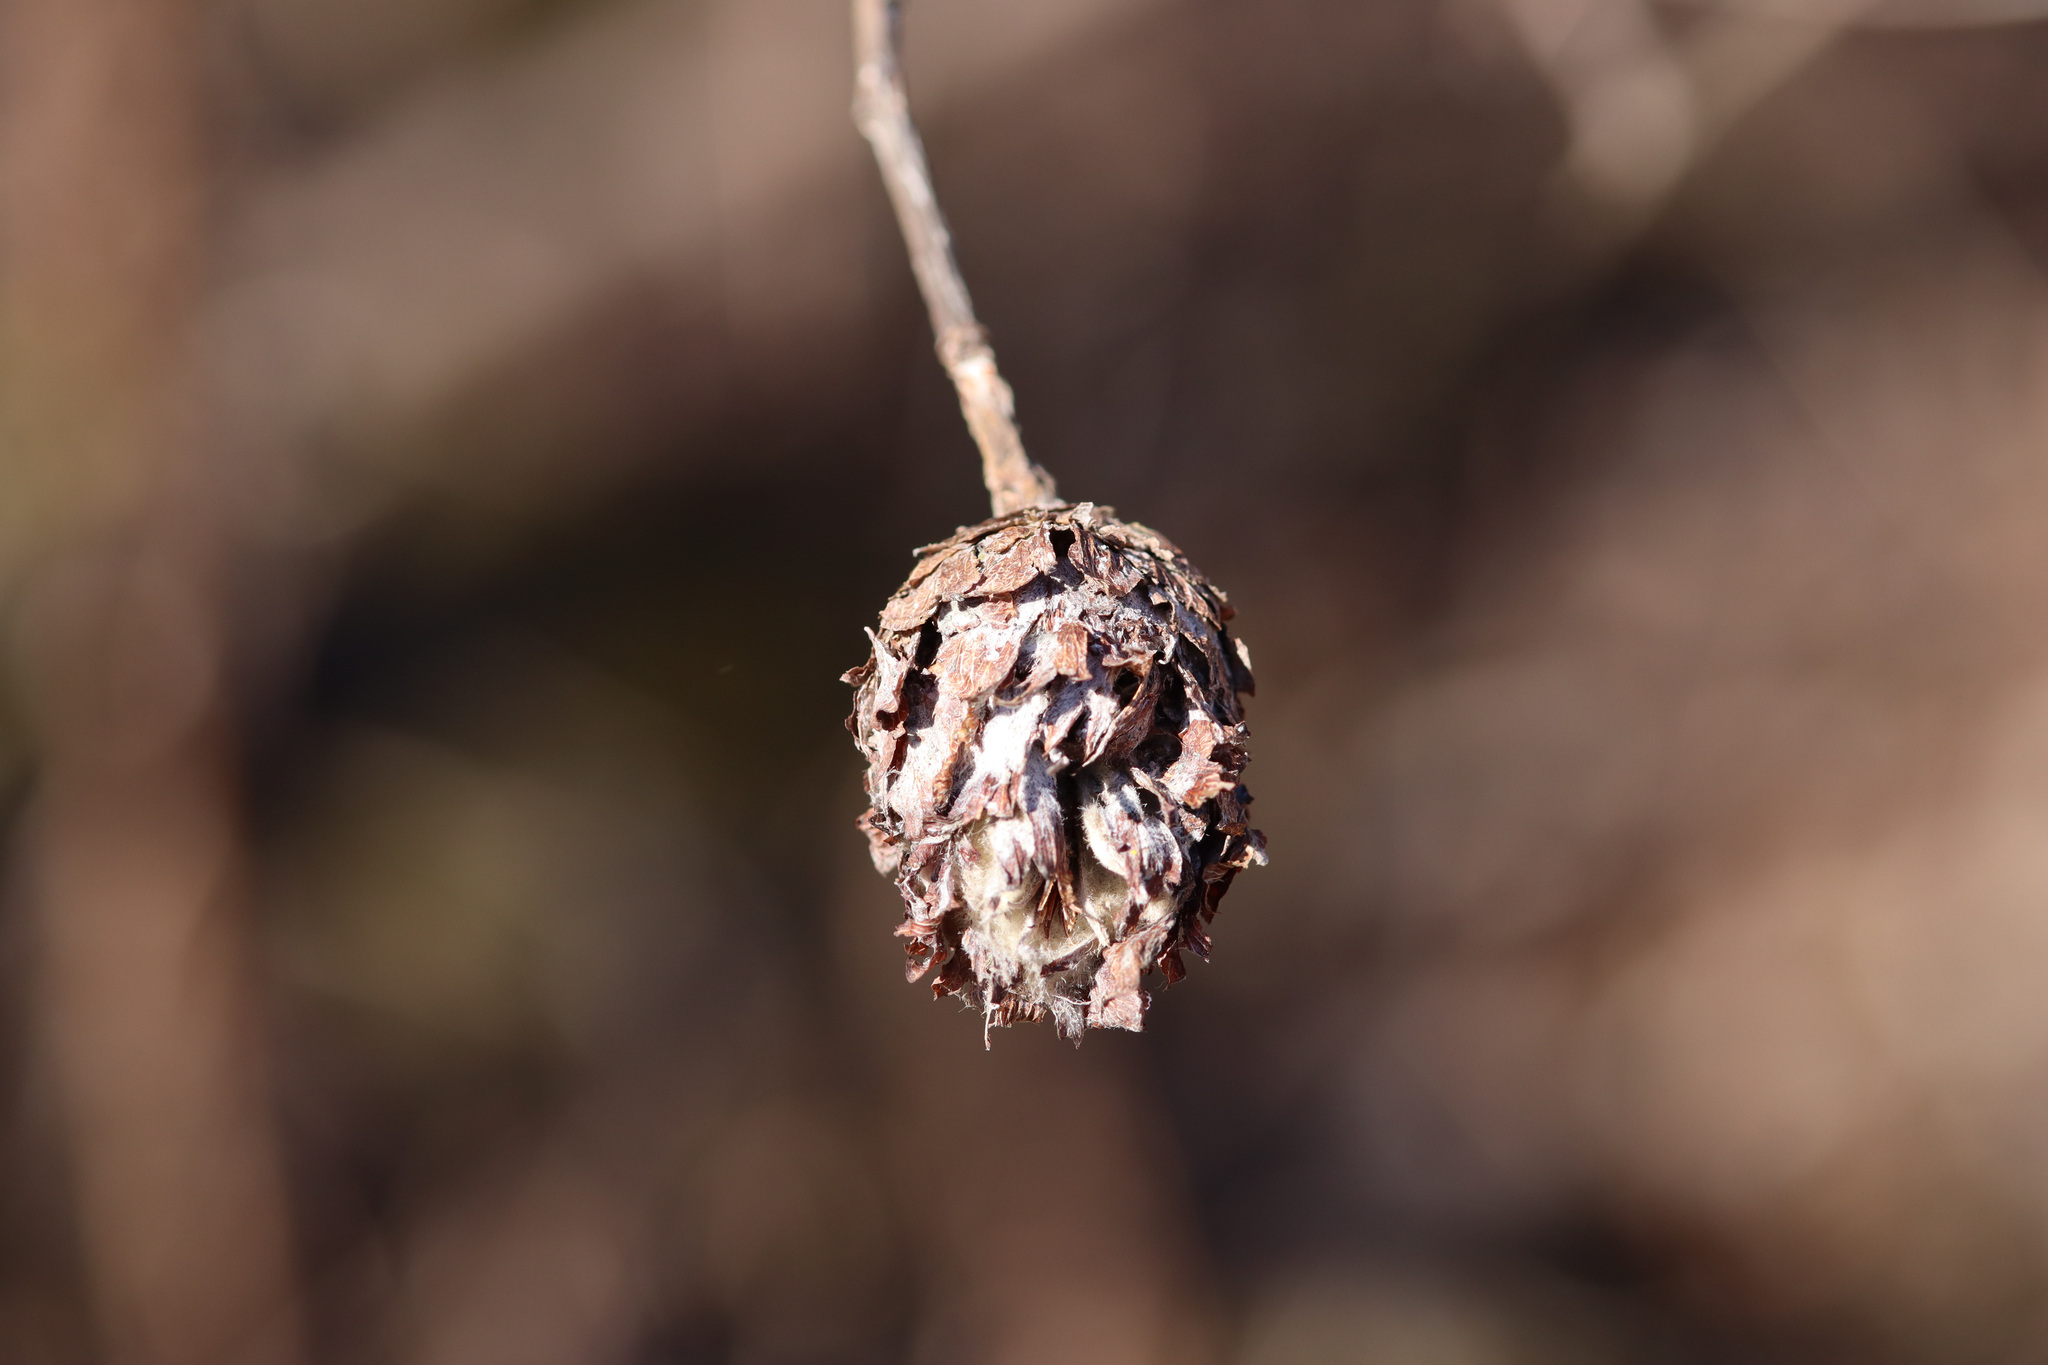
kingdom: Animalia
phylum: Arthropoda
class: Insecta
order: Diptera
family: Cecidomyiidae
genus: Rabdophaga
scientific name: Rabdophaga strobiloides
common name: Willow pinecone gall midge
